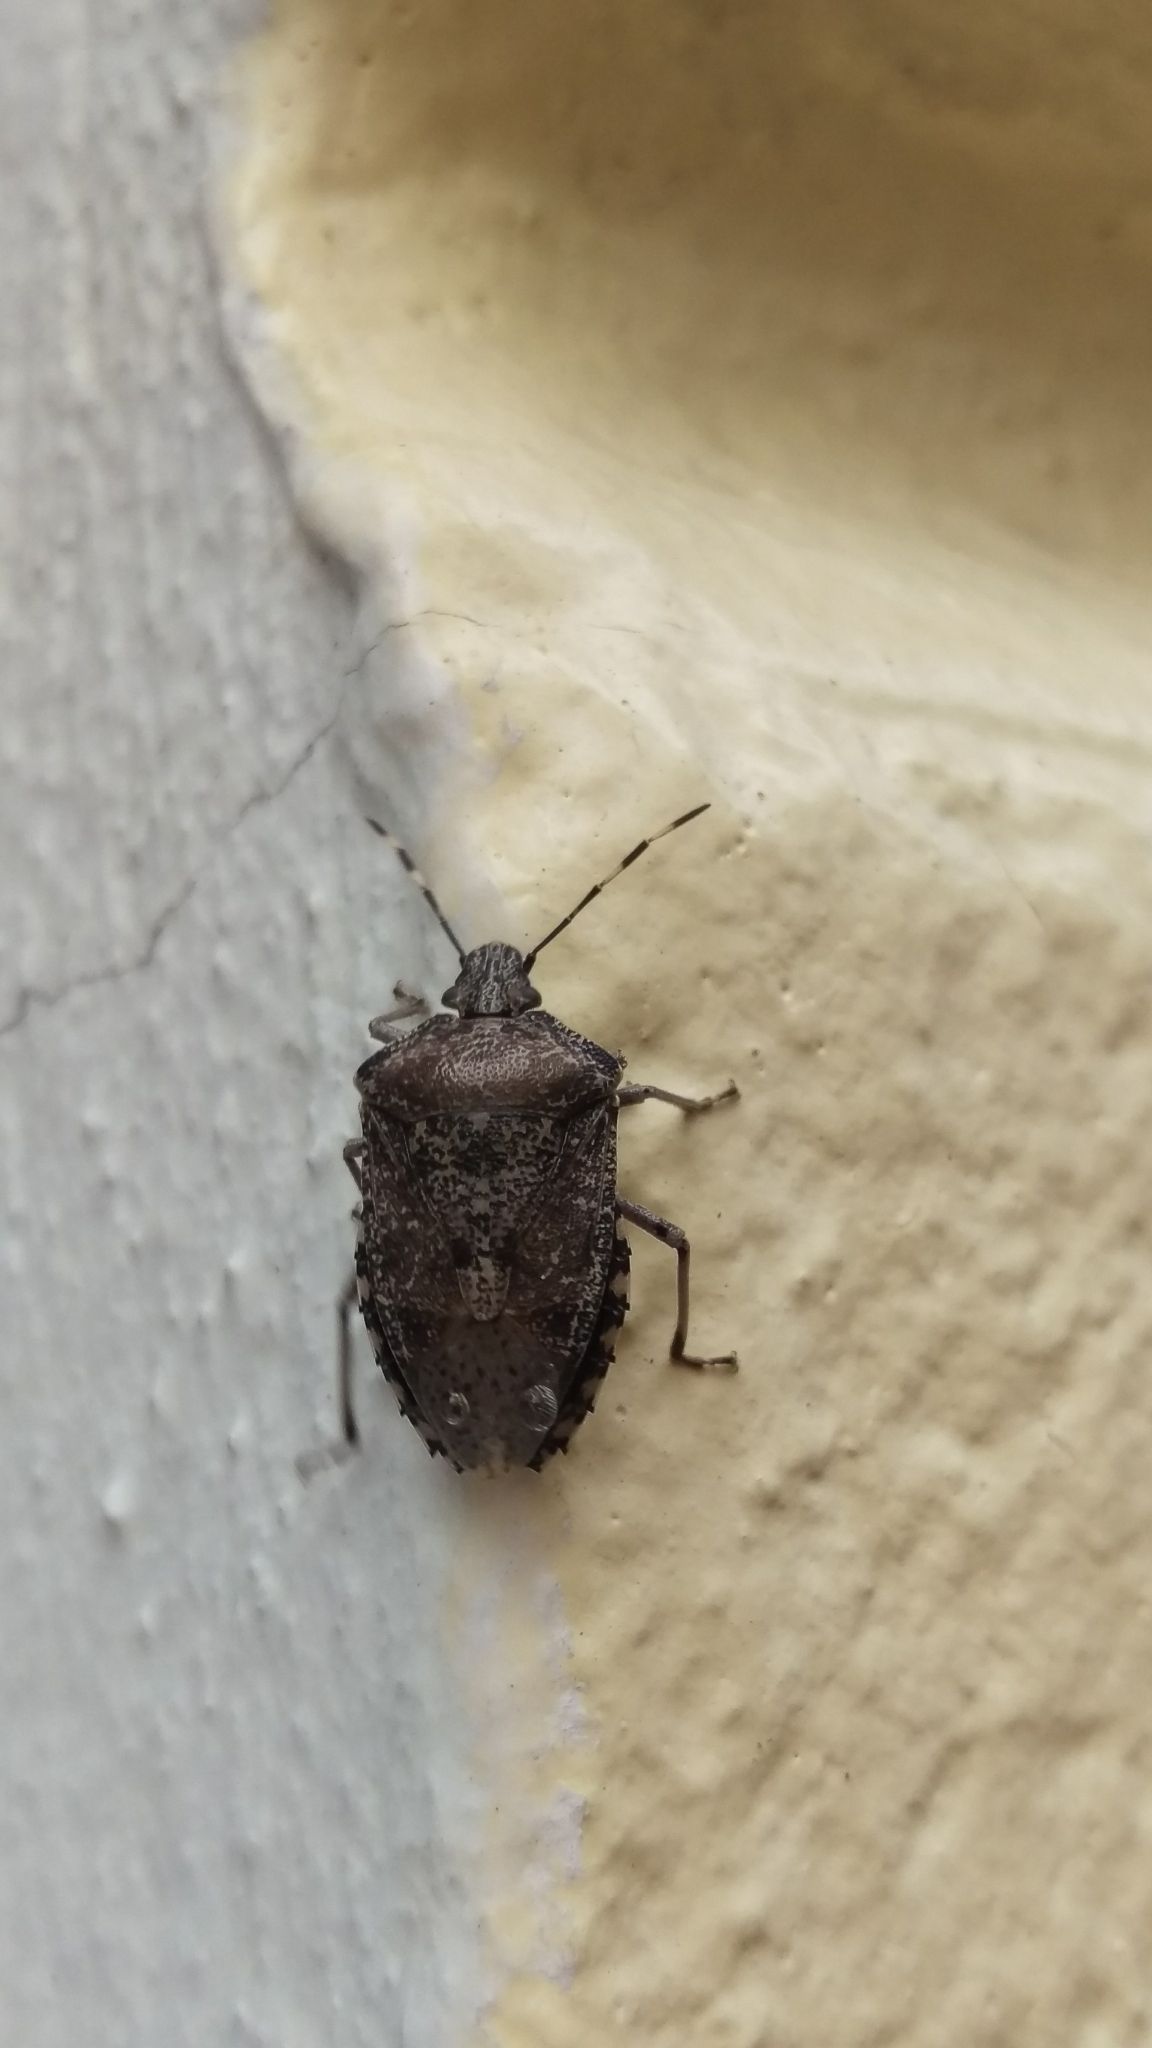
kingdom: Animalia
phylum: Arthropoda
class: Insecta
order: Hemiptera
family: Pentatomidae
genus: Rhaphigaster
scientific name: Rhaphigaster nebulosa
